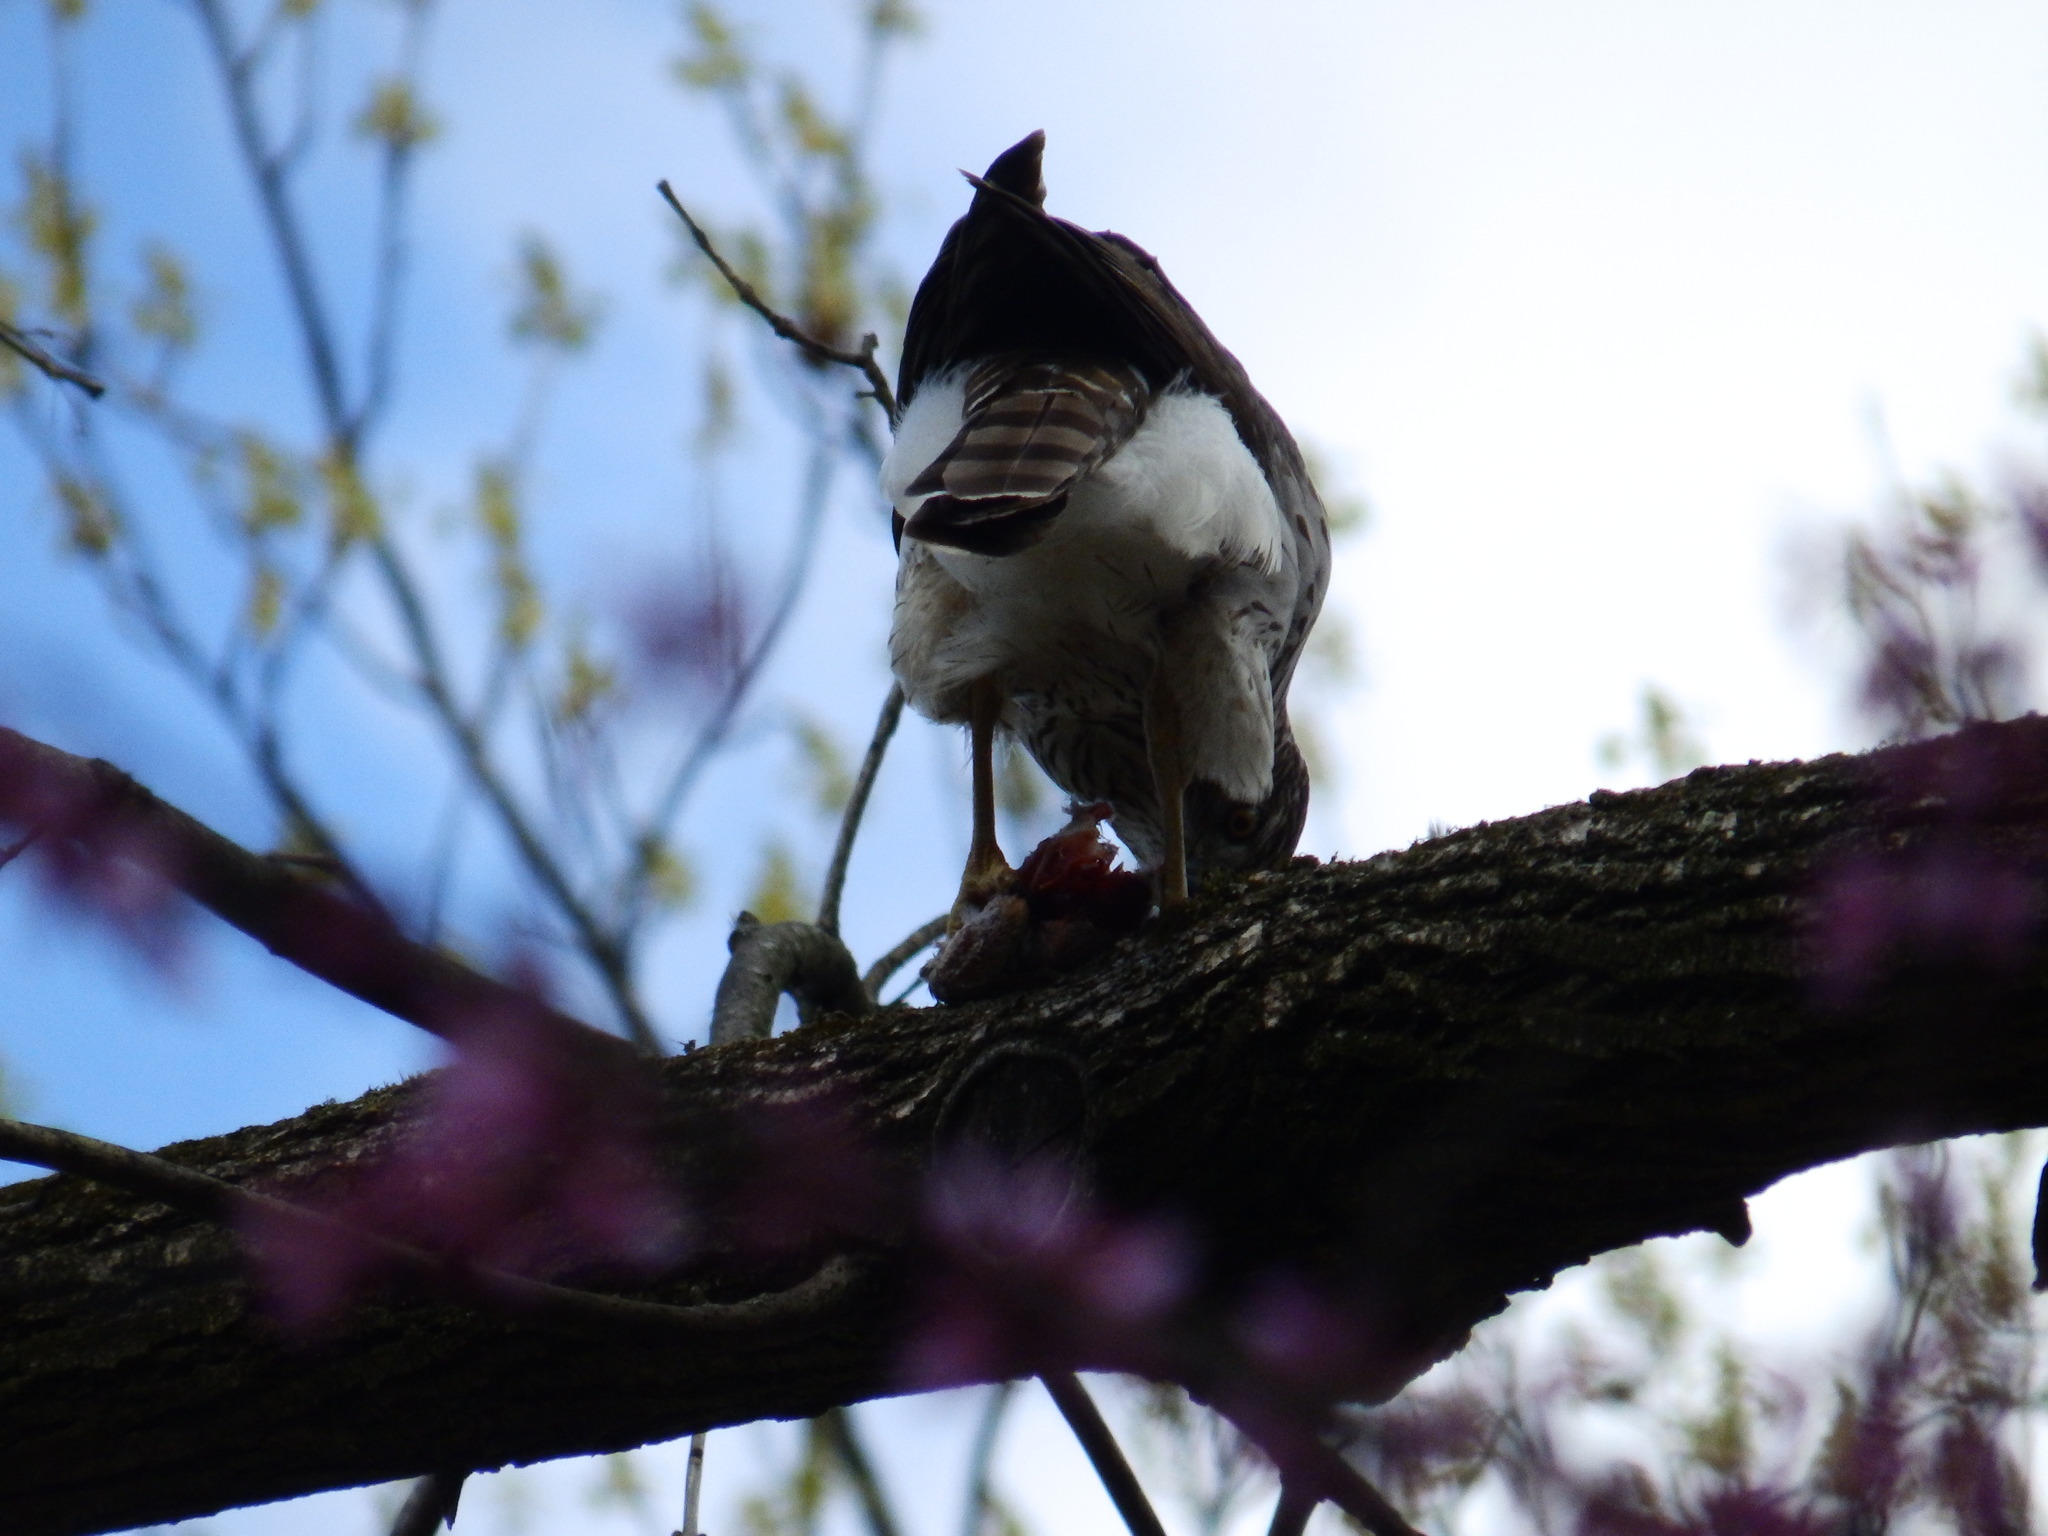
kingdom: Animalia
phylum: Chordata
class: Aves
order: Accipitriformes
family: Accipitridae
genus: Accipiter
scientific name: Accipiter cooperii
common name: Cooper's hawk
